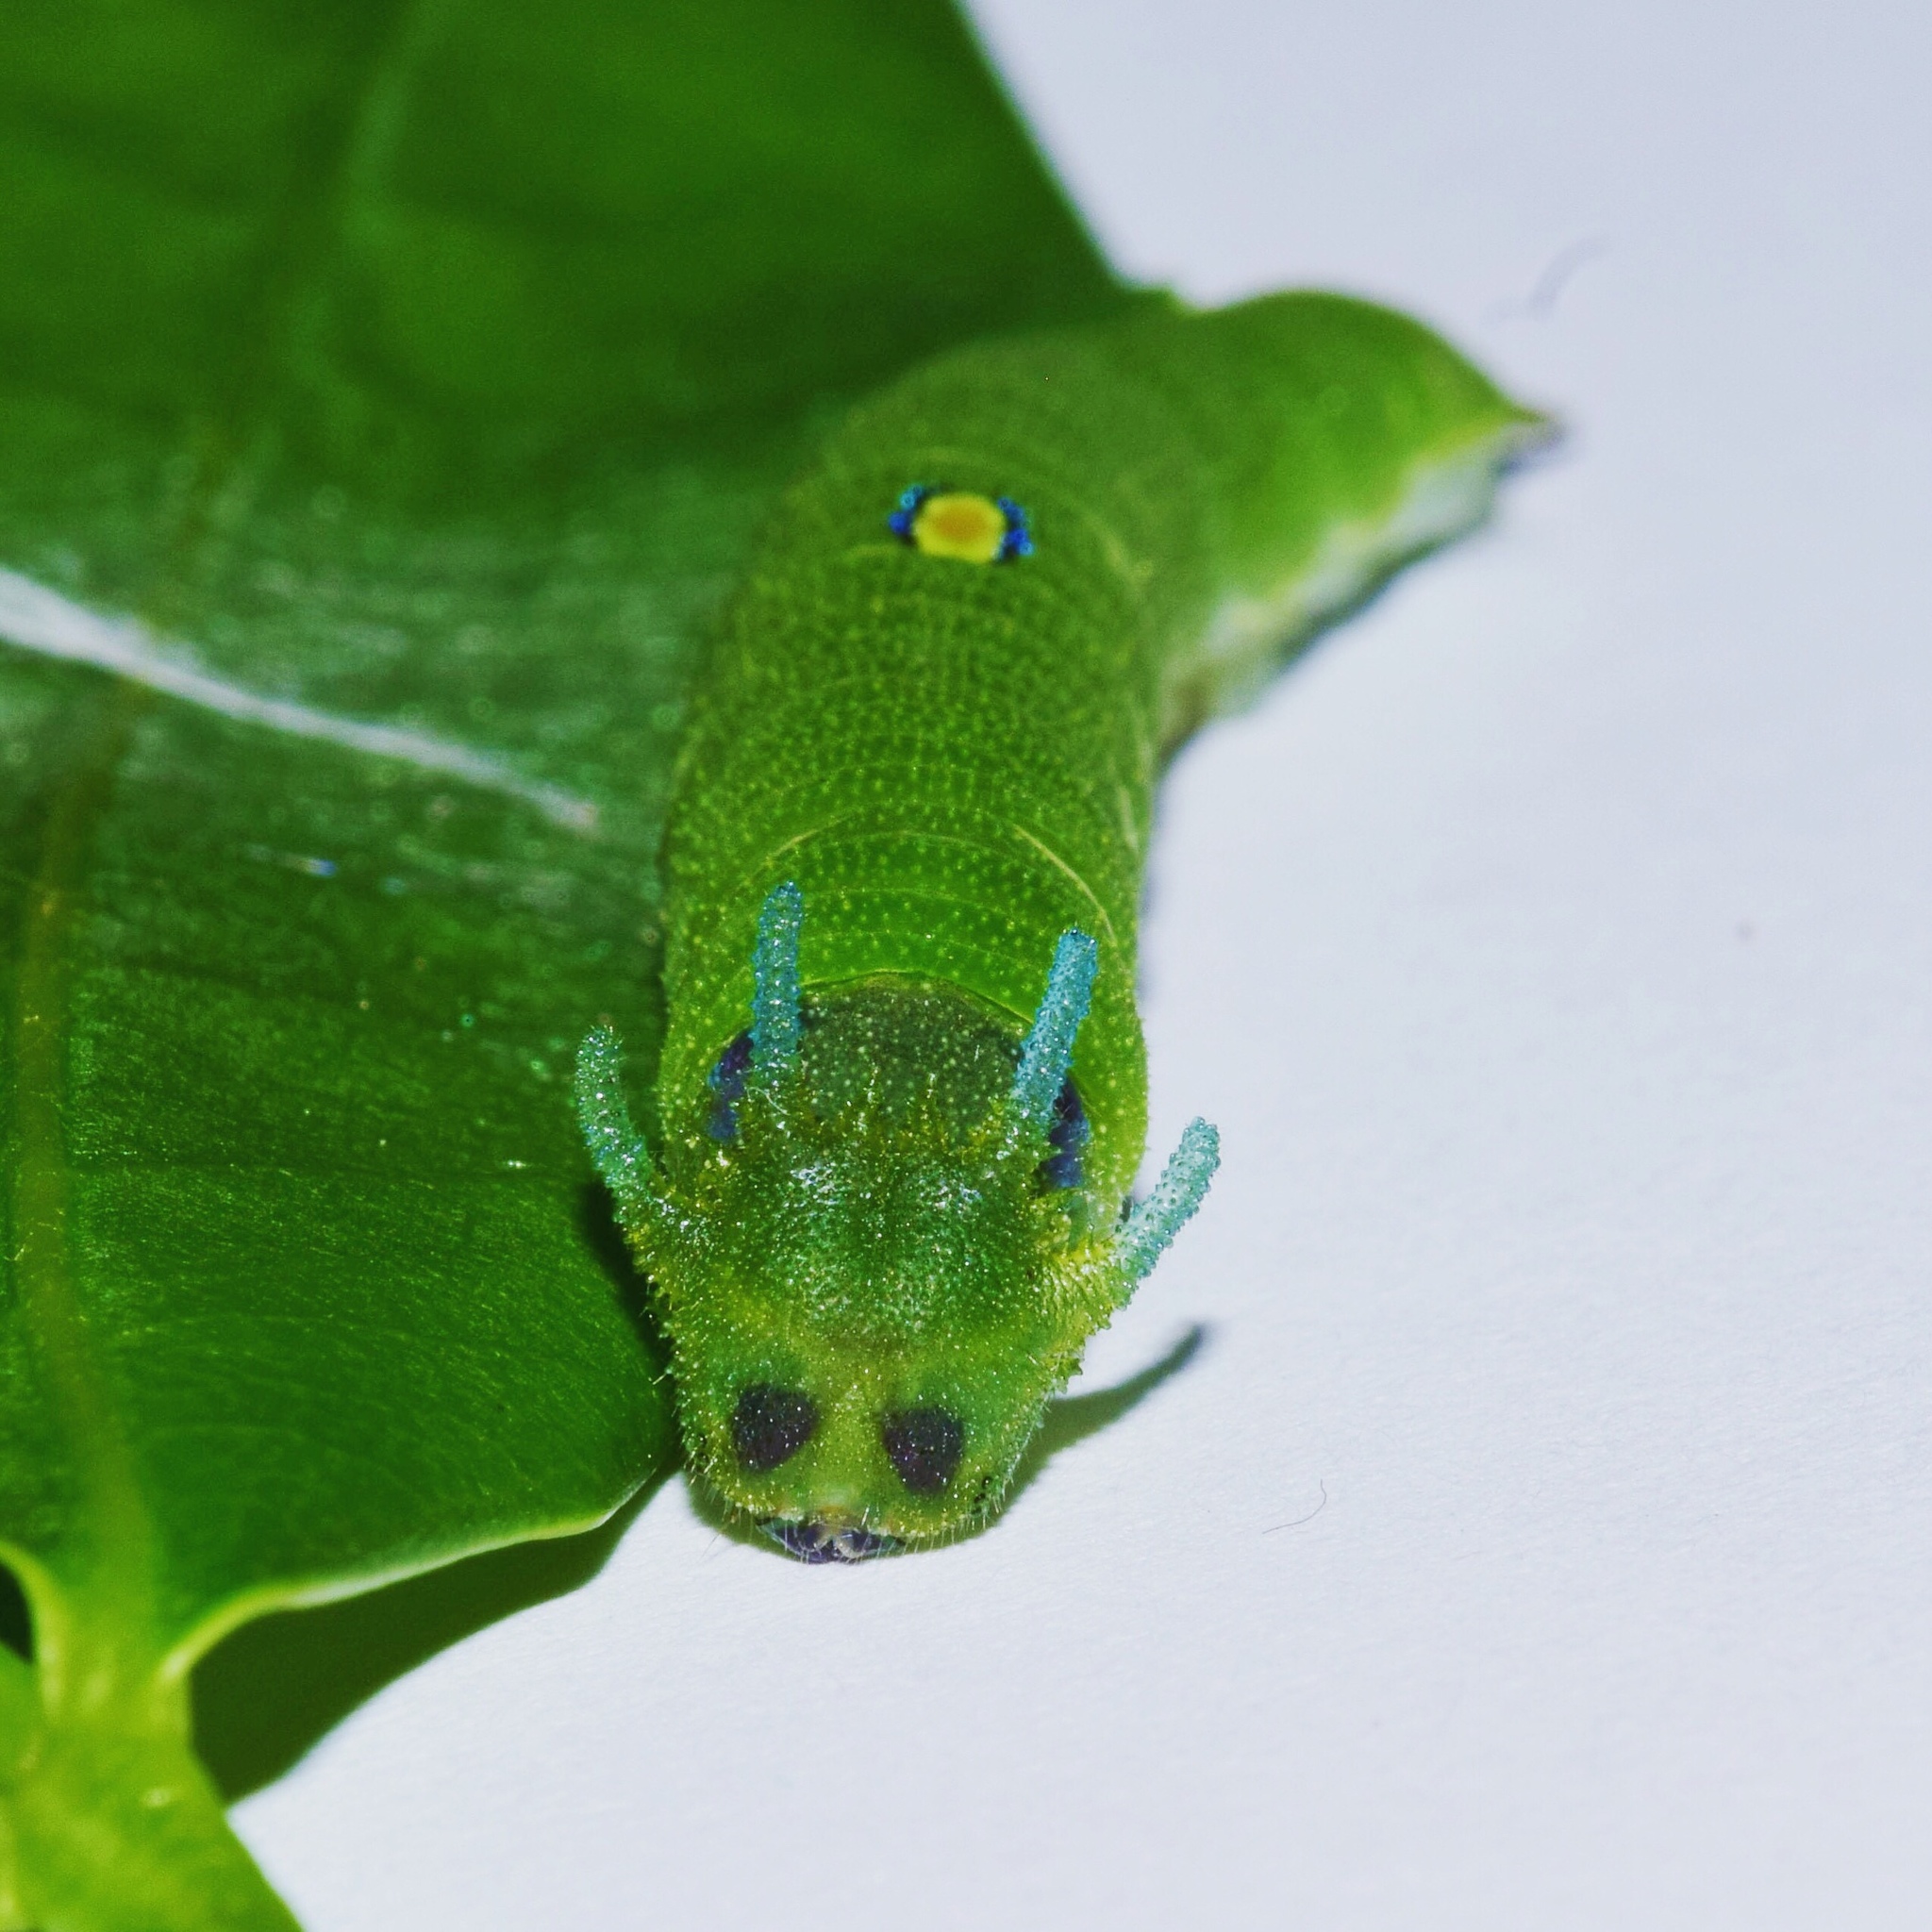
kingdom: Animalia
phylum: Arthropoda
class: Insecta
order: Lepidoptera
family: Nymphalidae
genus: Charaxes
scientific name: Charaxes brutus
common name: White-barred charaxes
